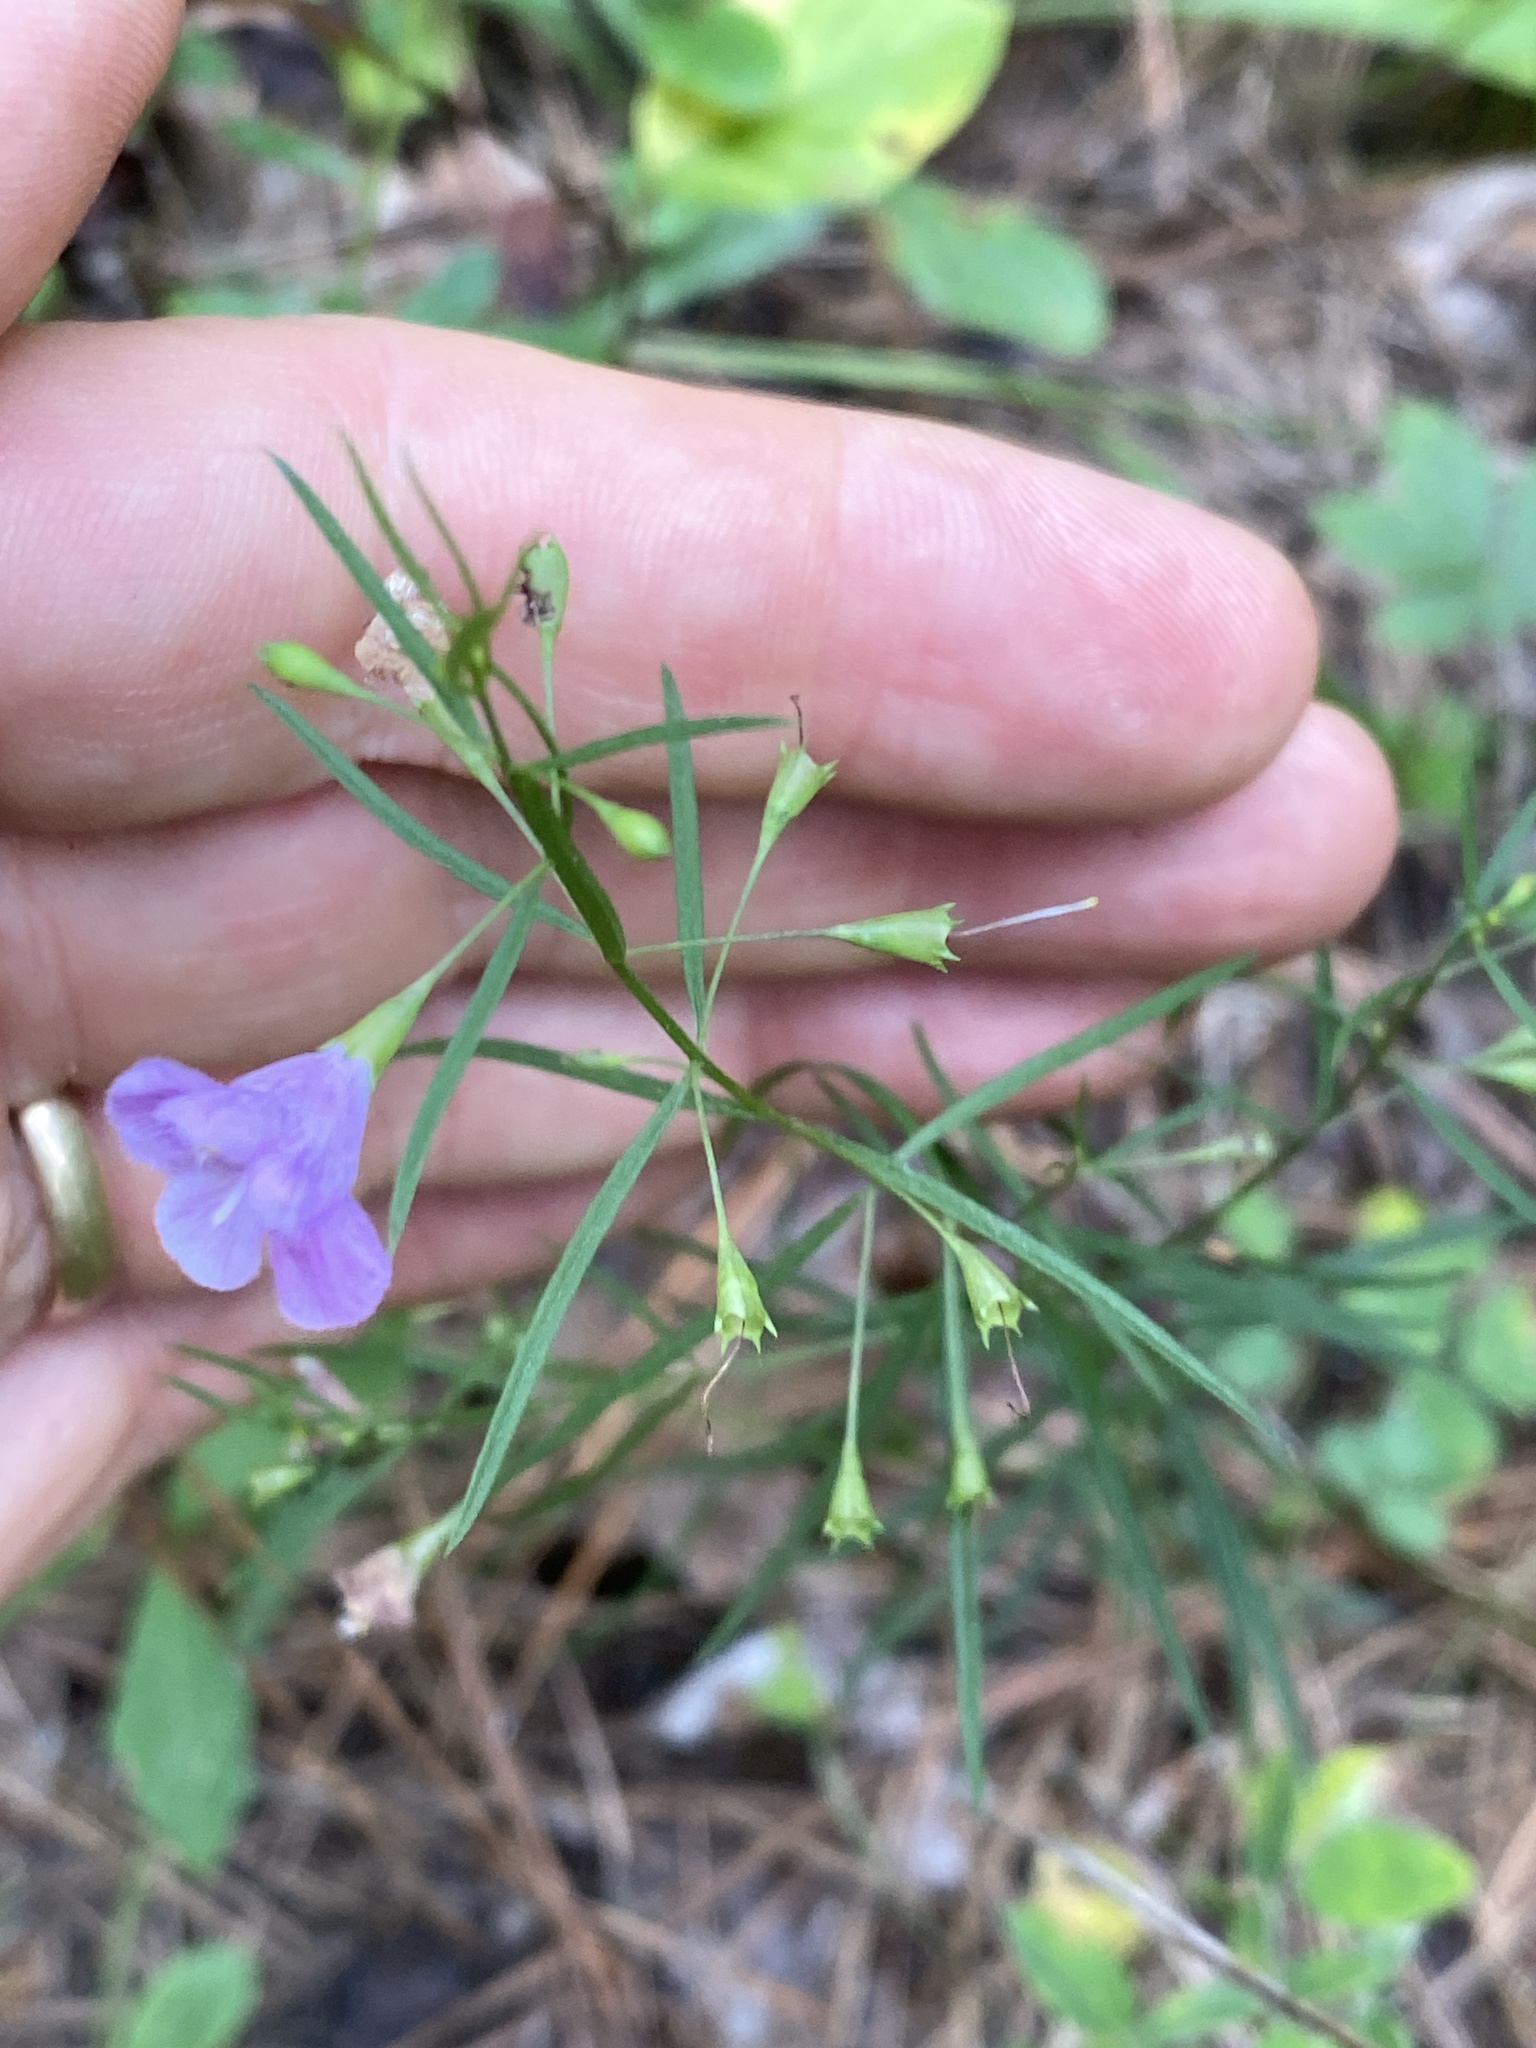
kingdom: Plantae
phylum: Tracheophyta
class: Magnoliopsida
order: Lamiales
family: Orobanchaceae
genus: Agalinis
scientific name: Agalinis tenuifolia
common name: Slender agalinis
